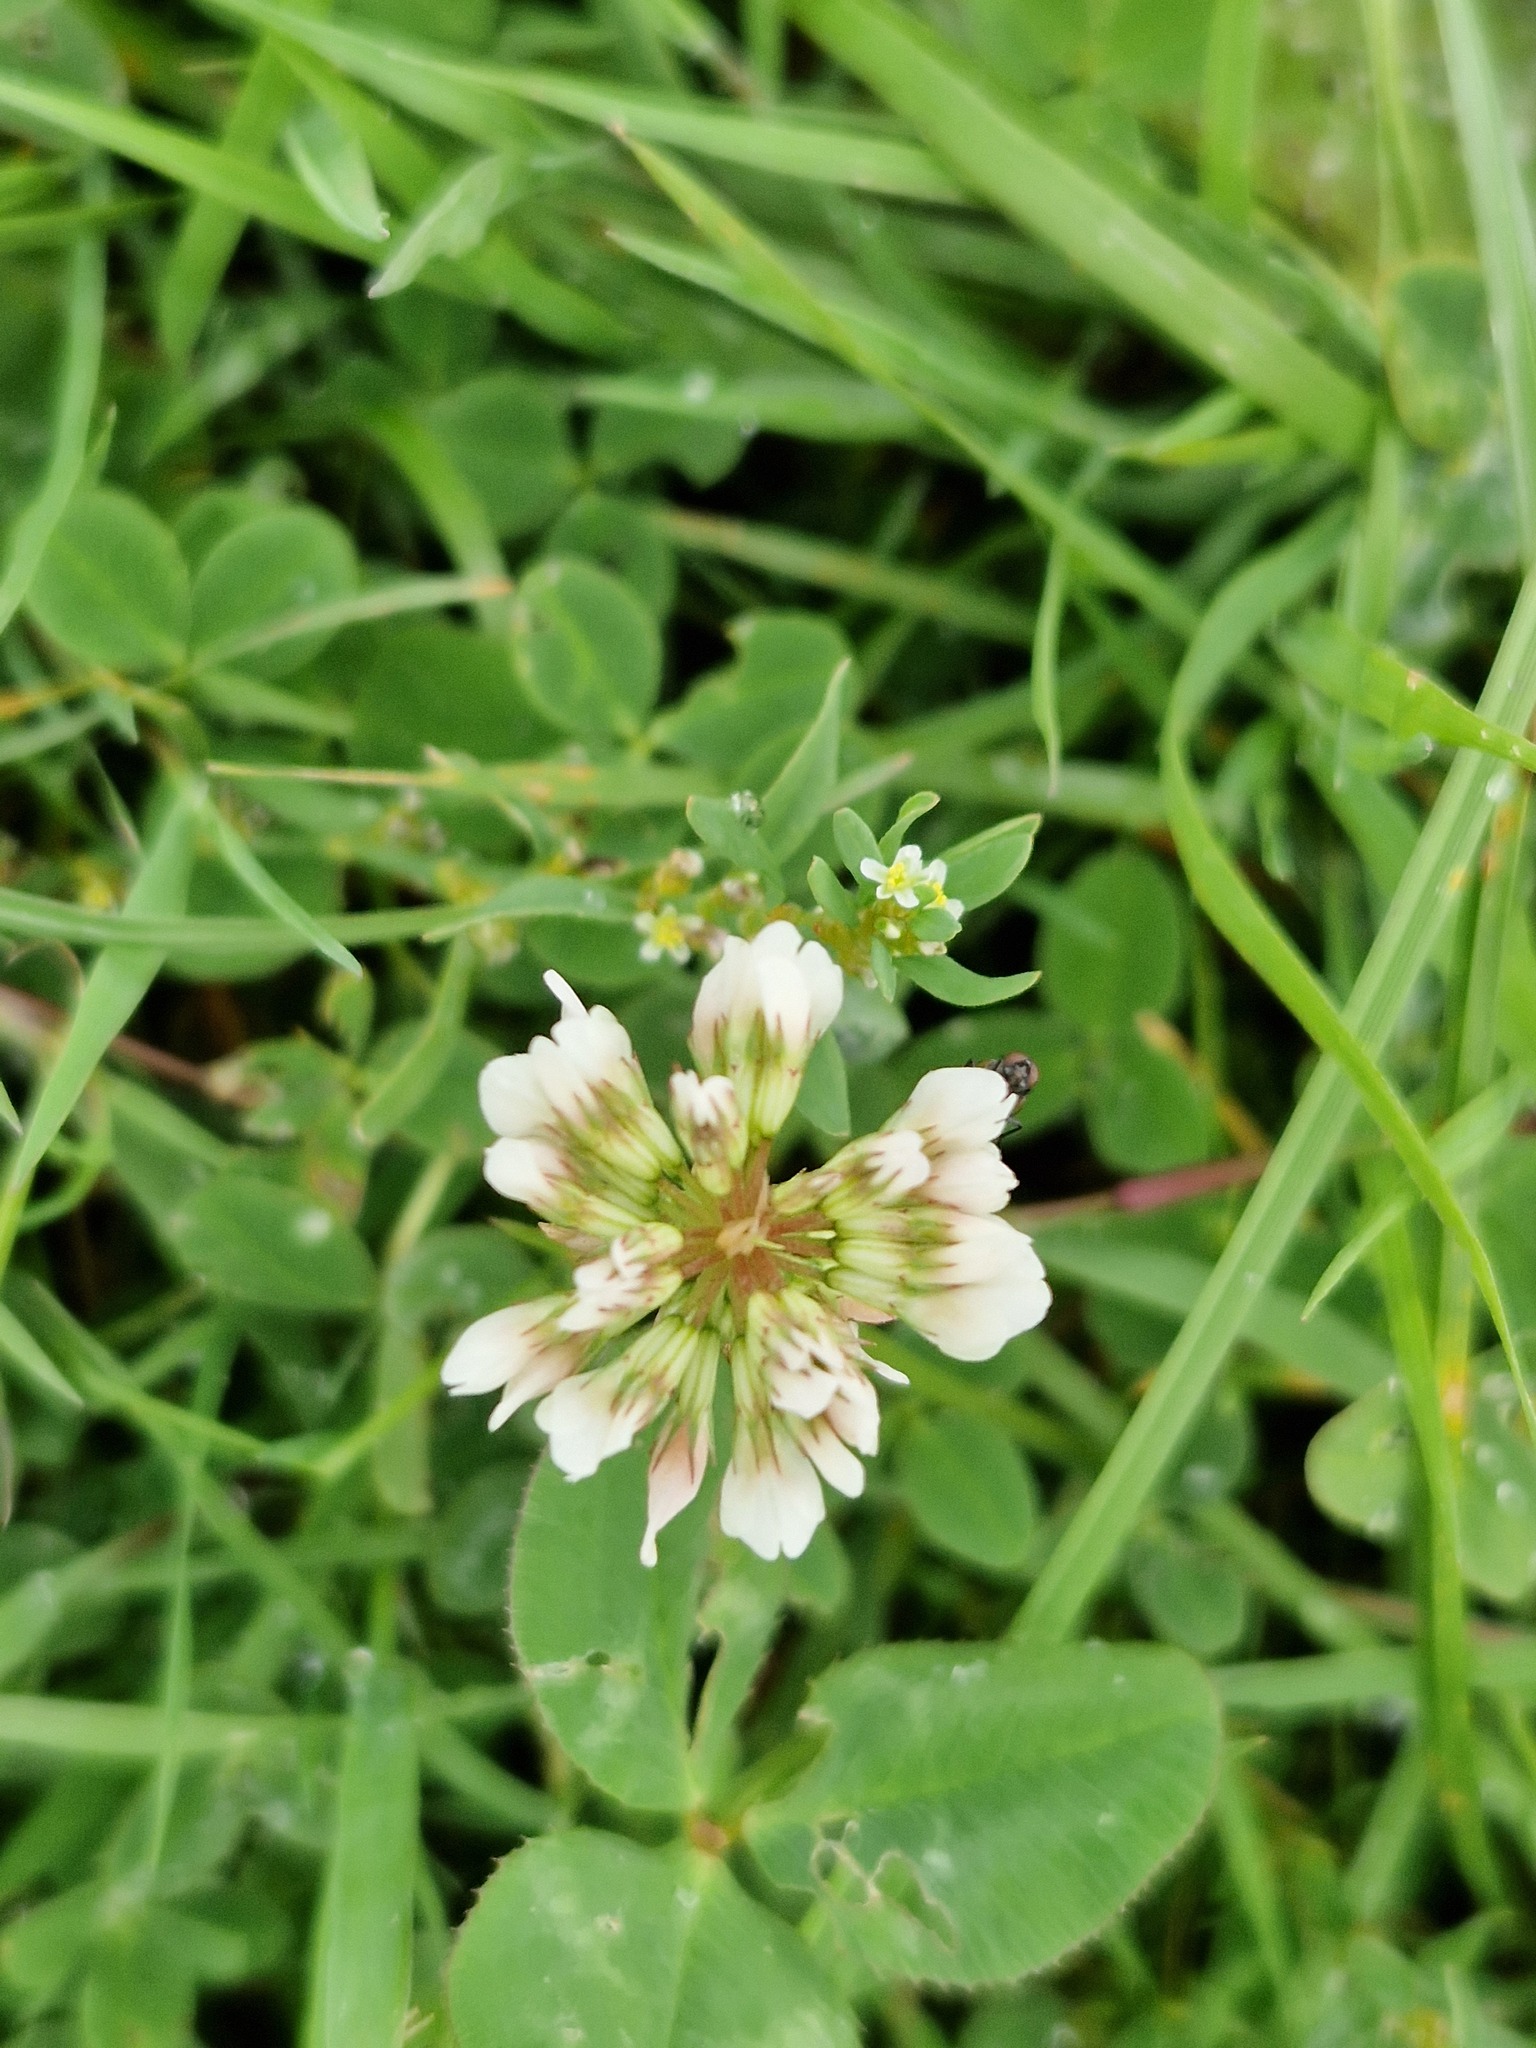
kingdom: Plantae
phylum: Tracheophyta
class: Magnoliopsida
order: Fabales
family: Fabaceae
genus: Trifolium
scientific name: Trifolium repens
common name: White clover
